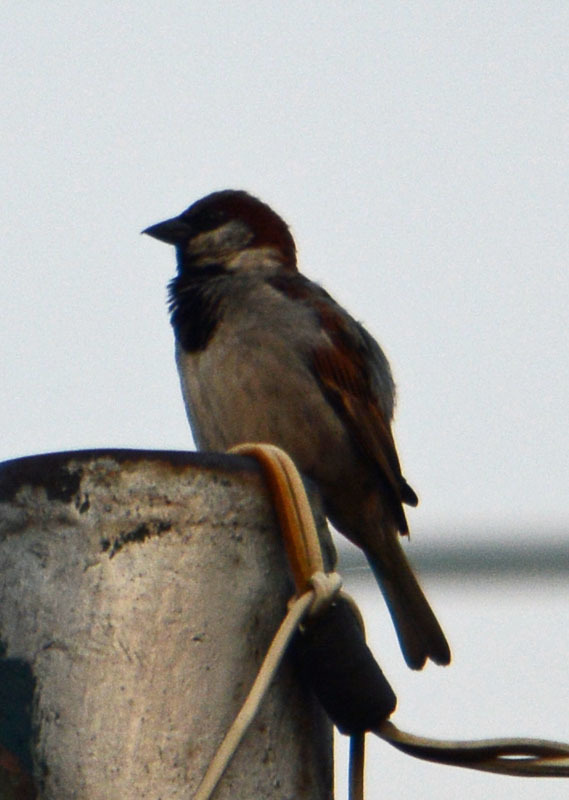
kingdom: Animalia
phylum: Chordata
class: Aves
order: Passeriformes
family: Passeridae
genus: Passer
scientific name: Passer domesticus
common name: House sparrow
